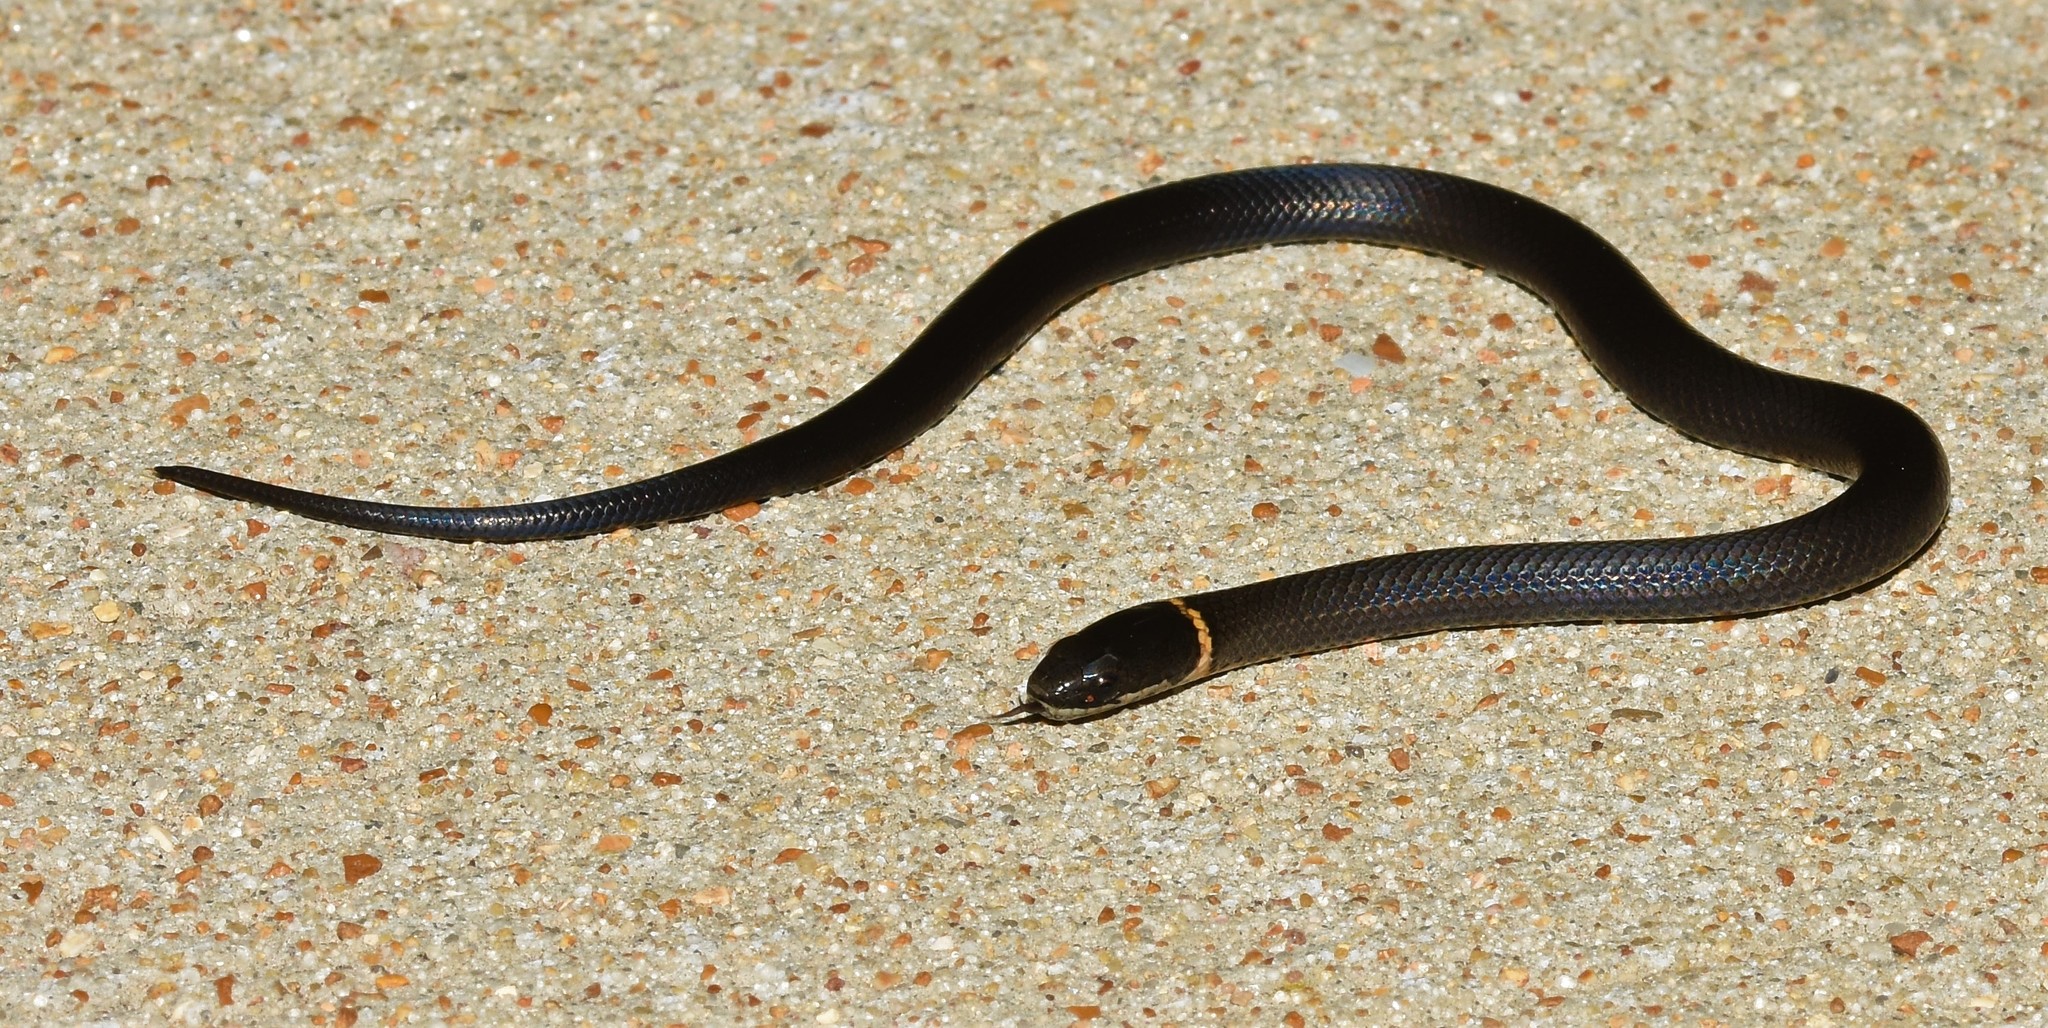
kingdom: Animalia
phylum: Chordata
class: Squamata
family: Colubridae
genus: Diadophis
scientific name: Diadophis punctatus
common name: Ringneck snake
